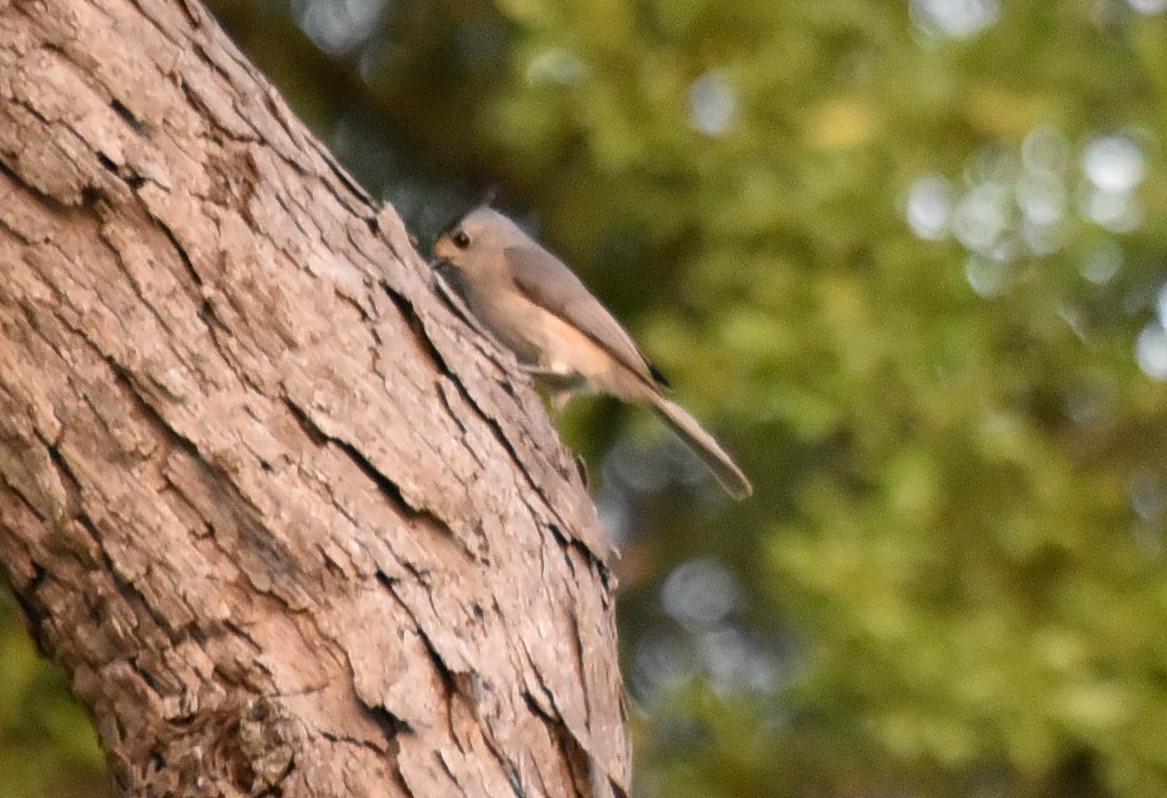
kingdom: Animalia
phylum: Chordata
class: Aves
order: Passeriformes
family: Paridae
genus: Baeolophus
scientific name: Baeolophus atricristatus
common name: Black-crested titmouse
